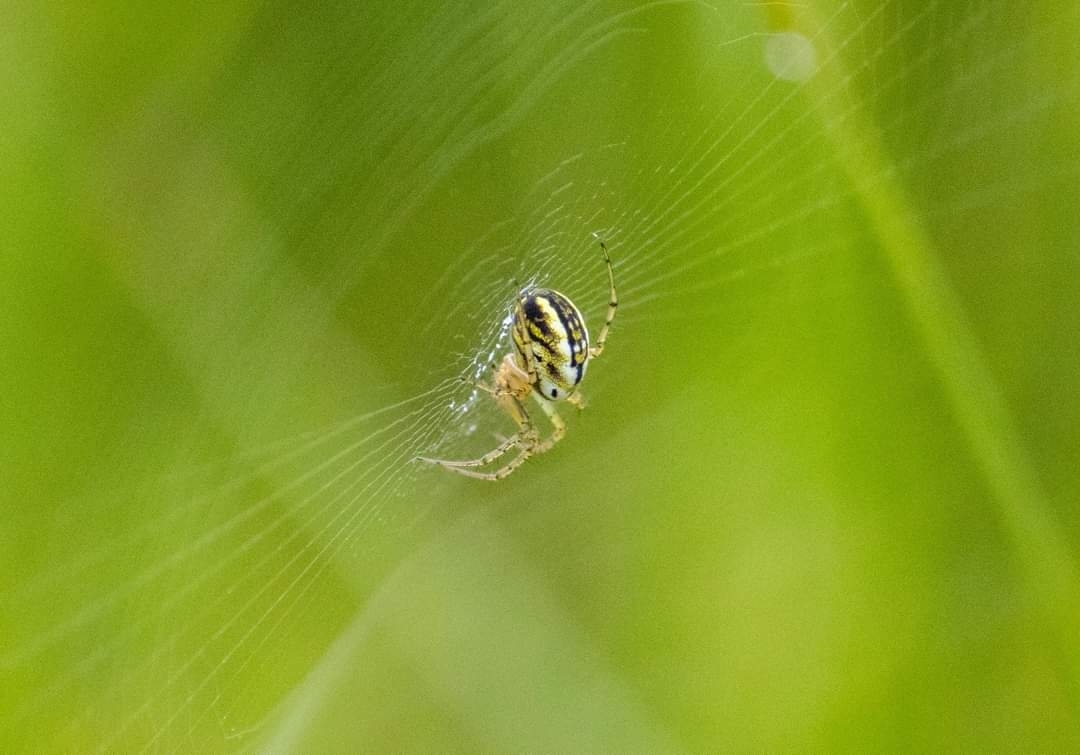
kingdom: Animalia
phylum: Arthropoda
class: Arachnida
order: Araneae
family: Araneidae
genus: Mangora
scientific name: Mangora acalypha
